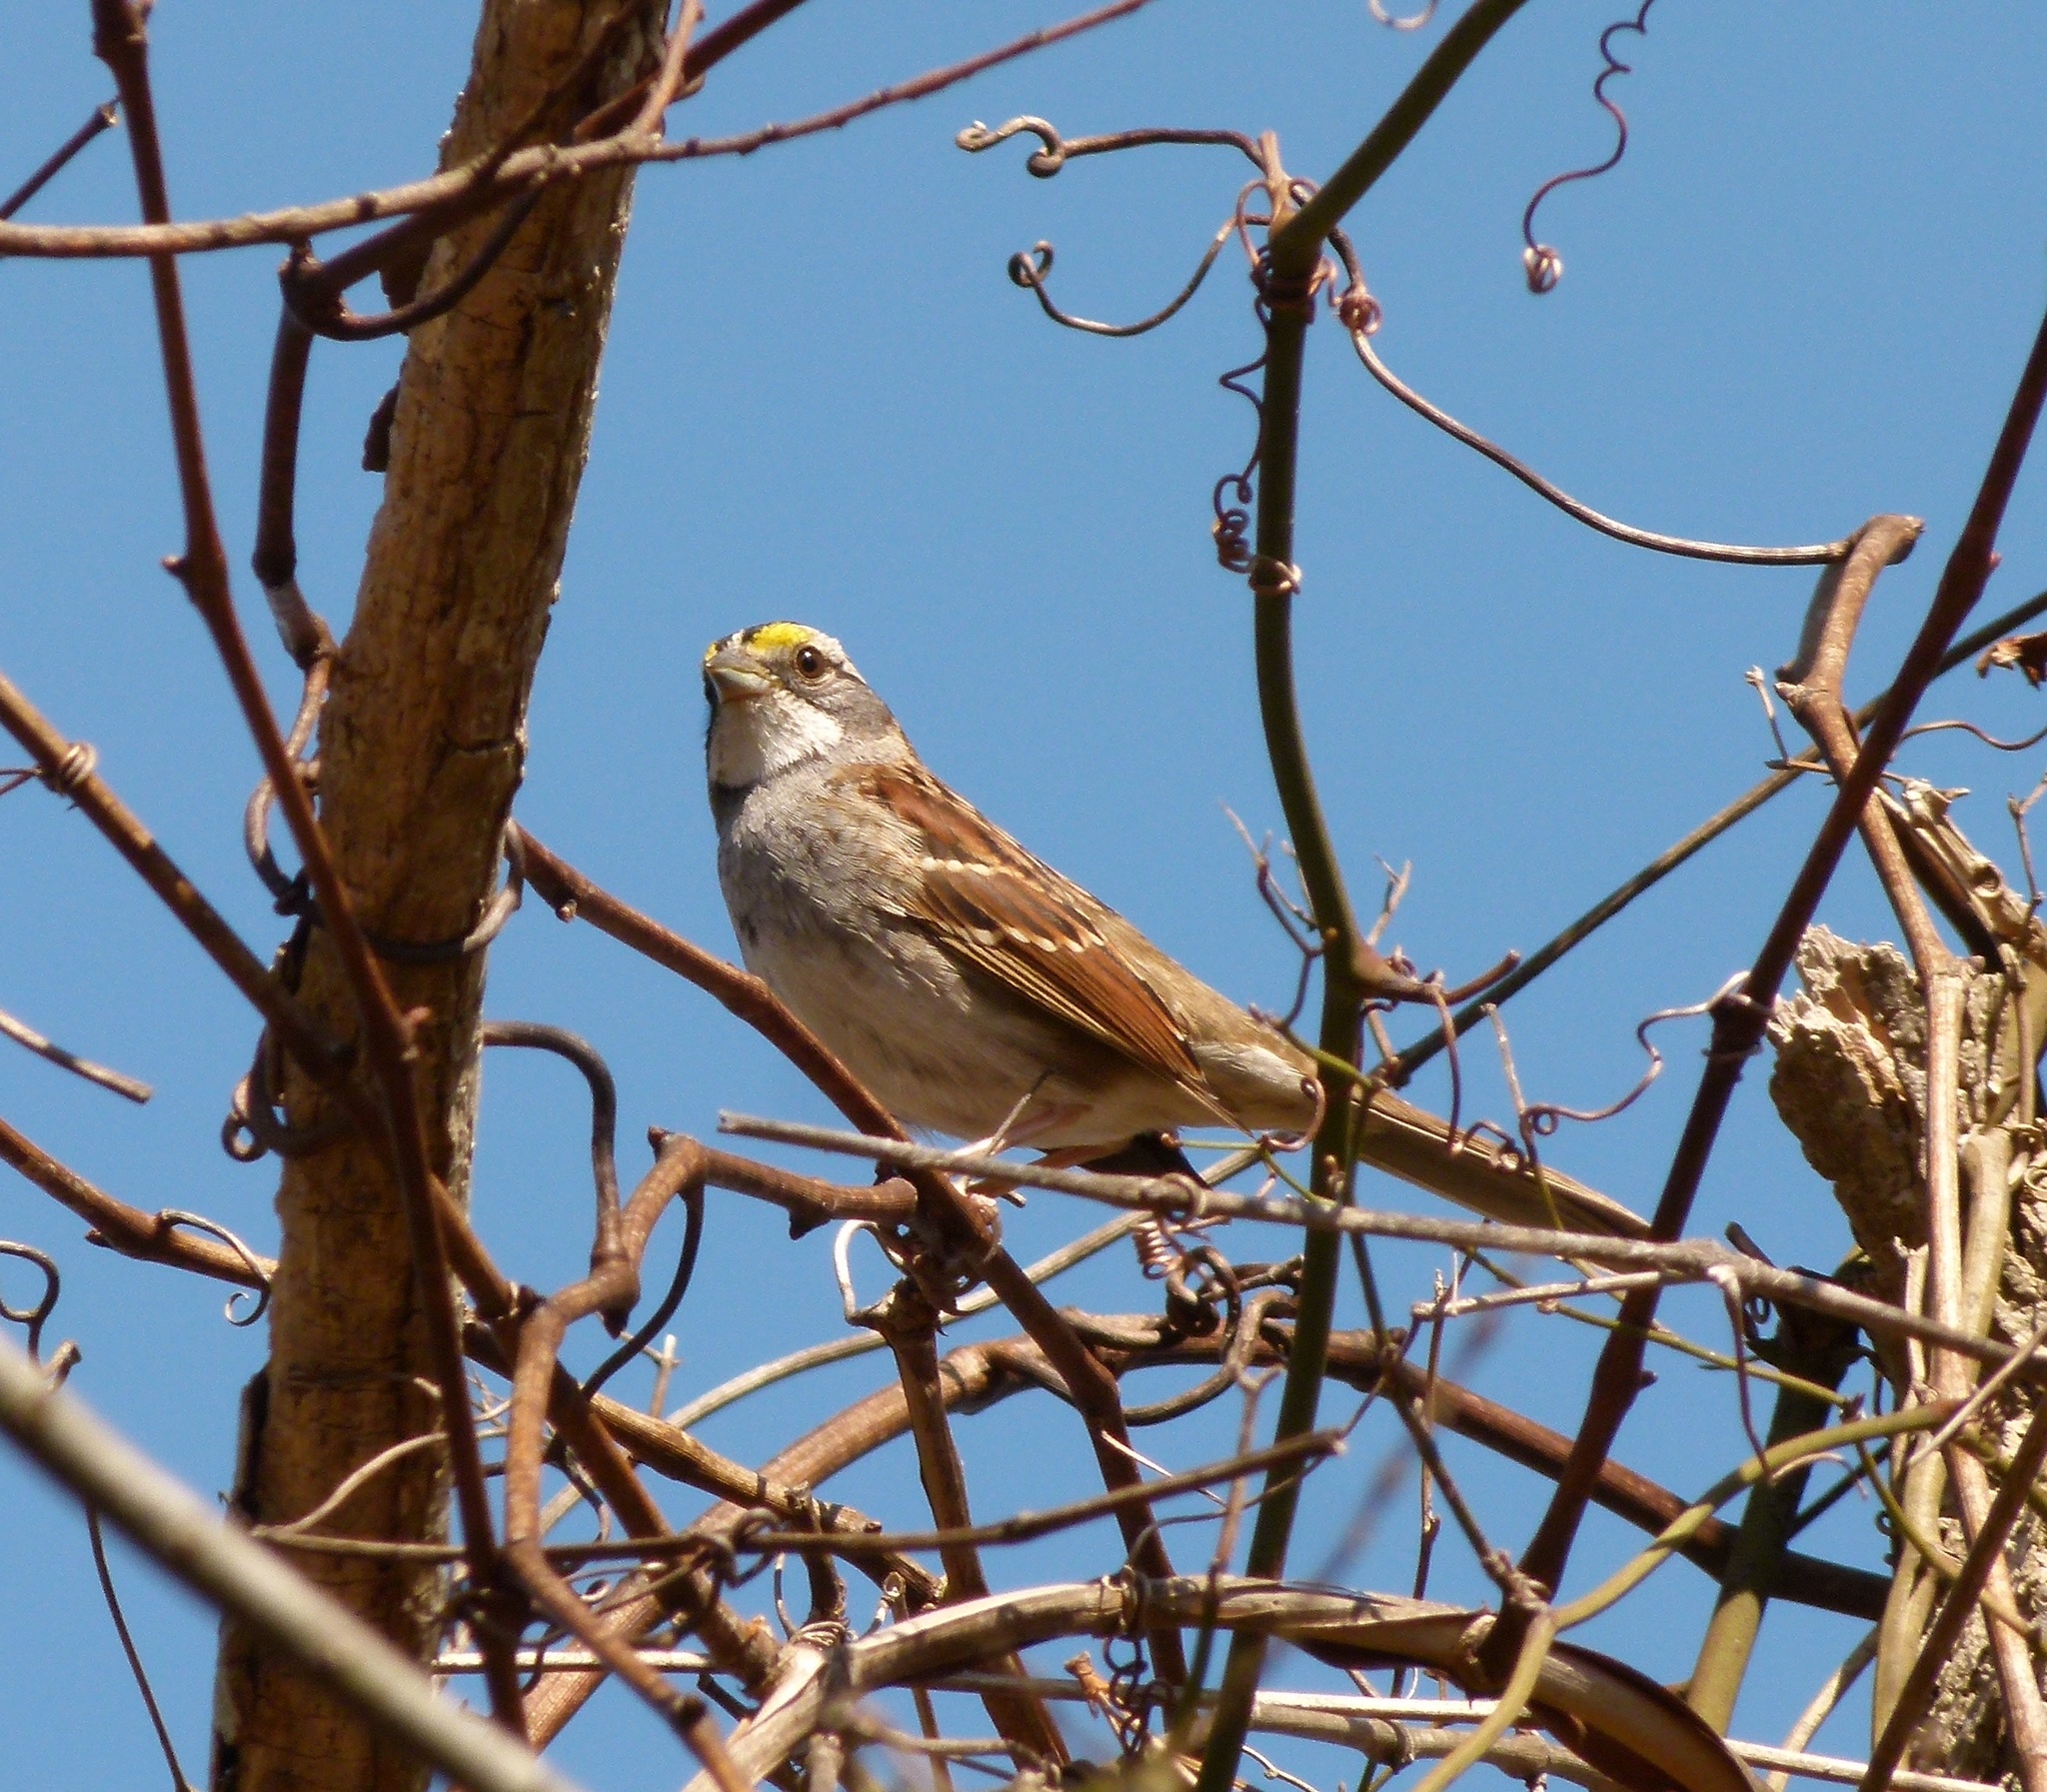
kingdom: Animalia
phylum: Chordata
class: Aves
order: Passeriformes
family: Passerellidae
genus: Zonotrichia
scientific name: Zonotrichia albicollis
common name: White-throated sparrow
